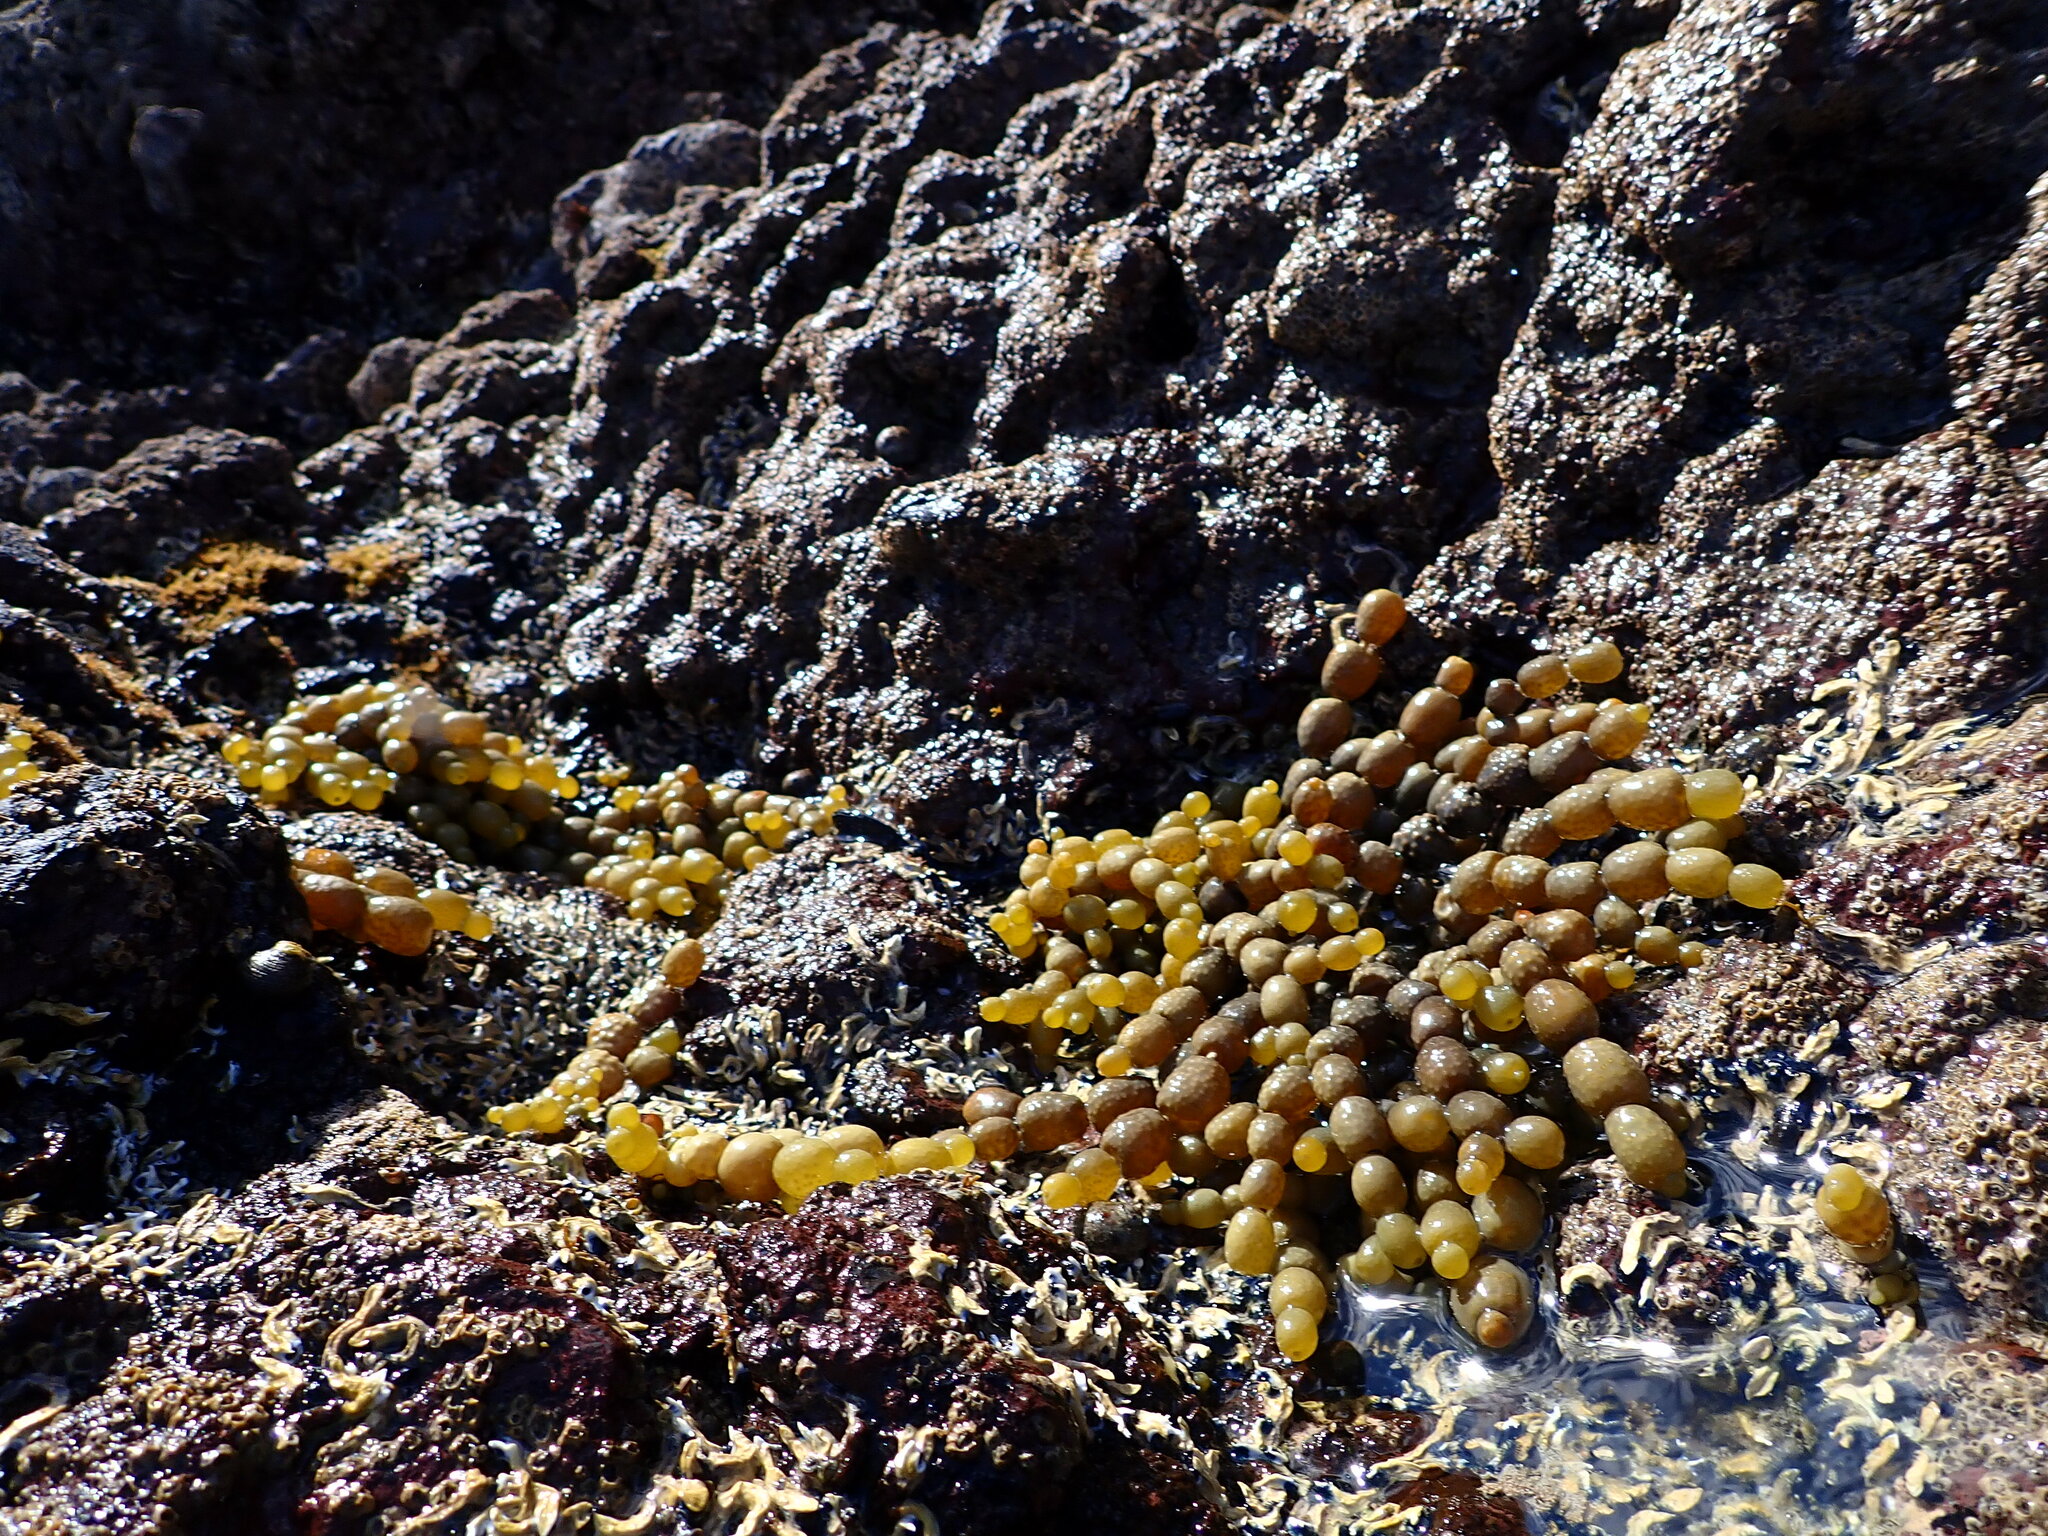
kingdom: Chromista
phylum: Ochrophyta
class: Phaeophyceae
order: Fucales
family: Hormosiraceae
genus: Hormosira
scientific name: Hormosira banksii
